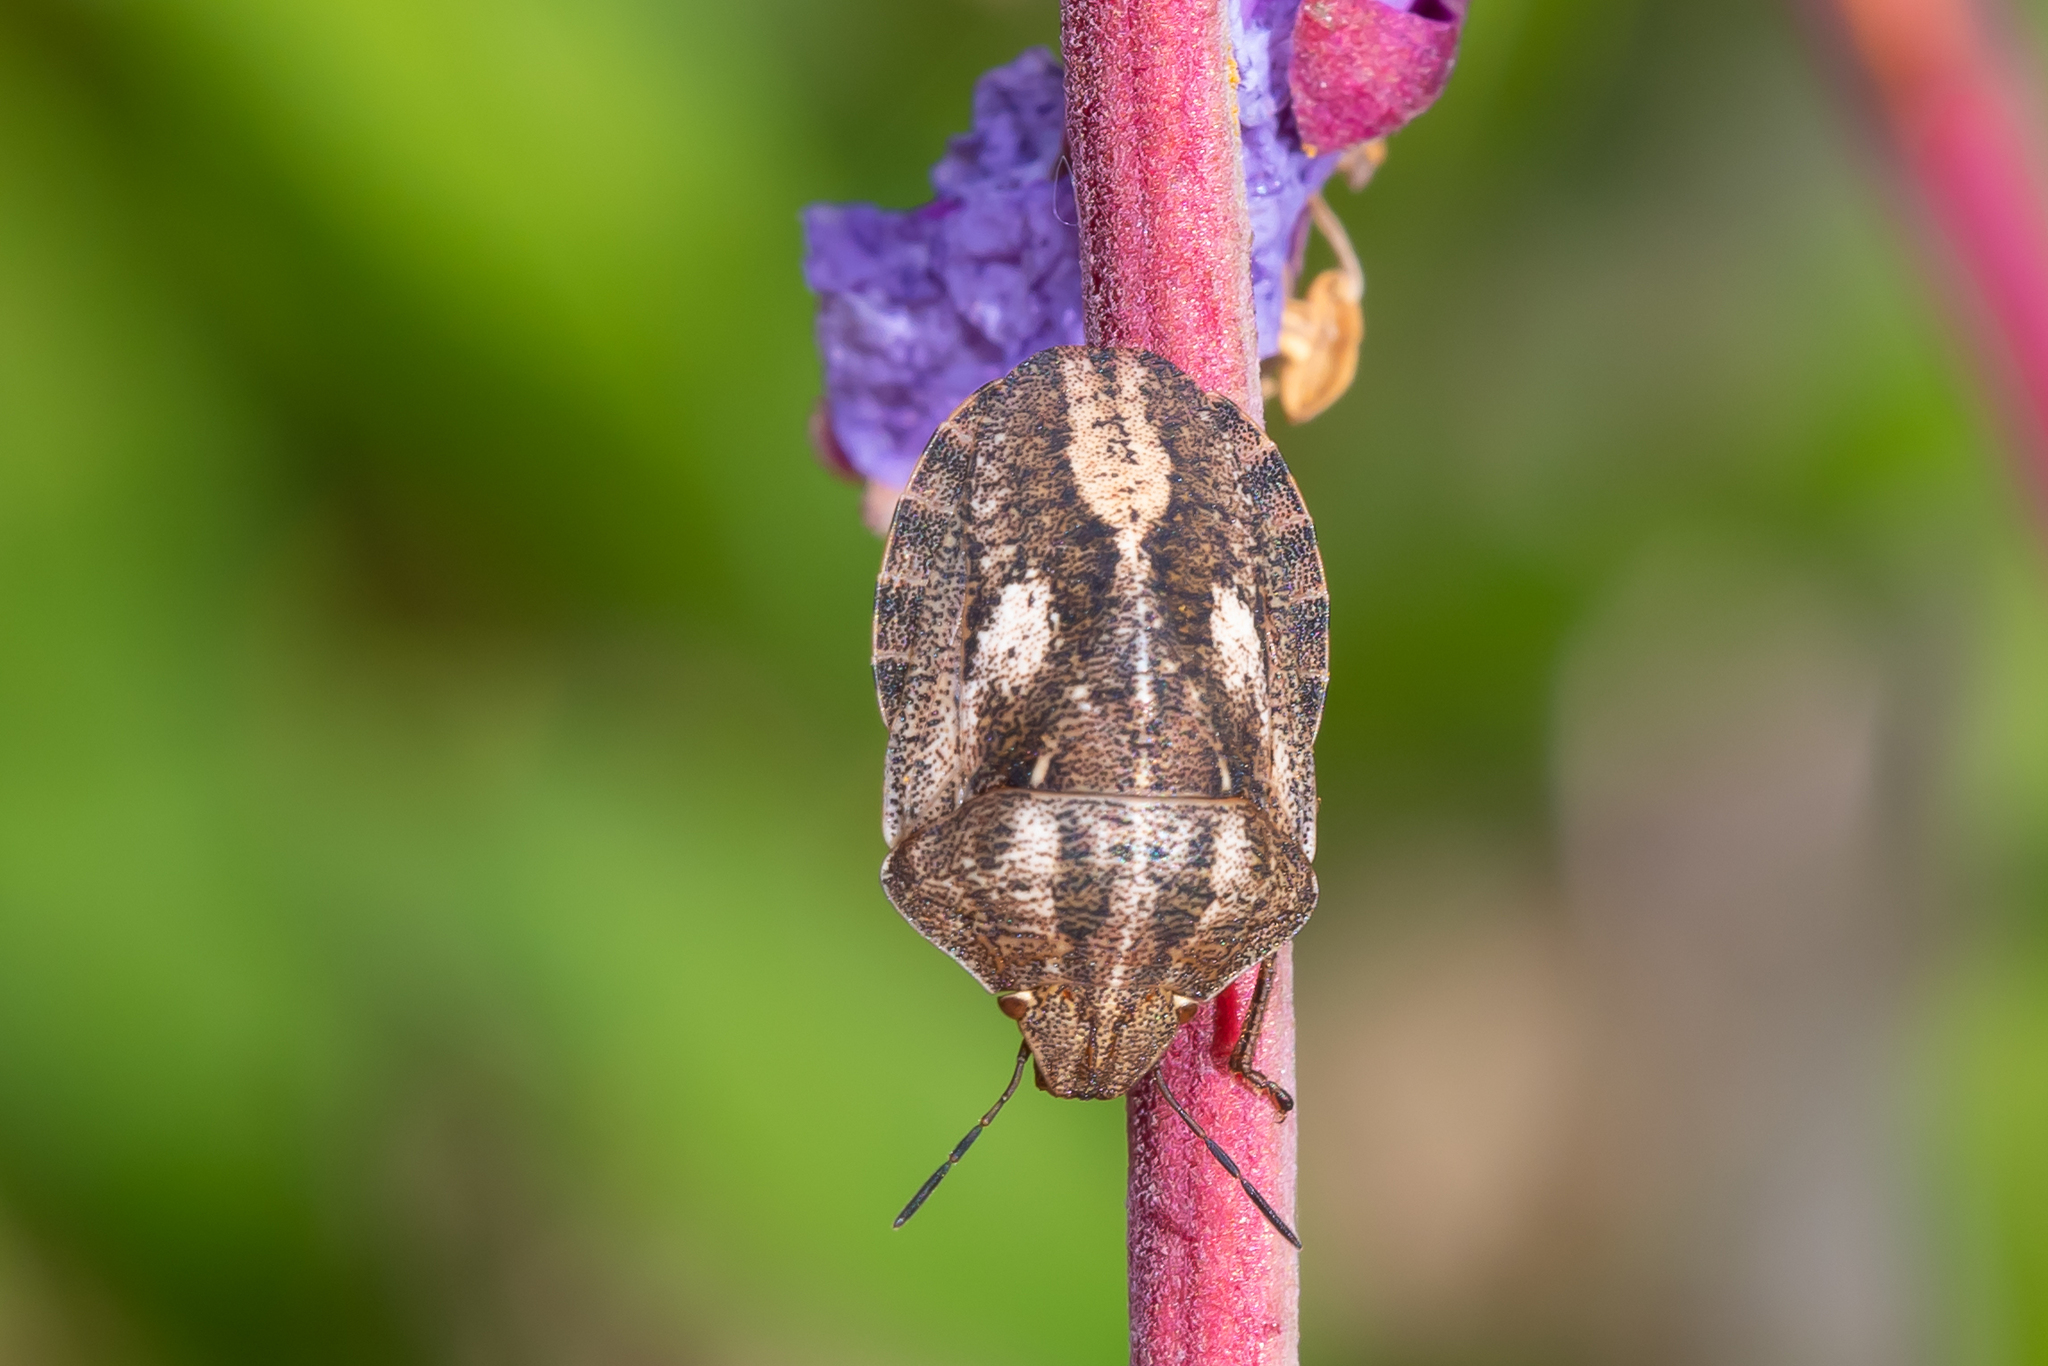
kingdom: Animalia
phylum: Arthropoda
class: Insecta
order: Hemiptera
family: Scutelleridae
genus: Eurygaster
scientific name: Eurygaster testudinaria
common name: Tortoise bug
